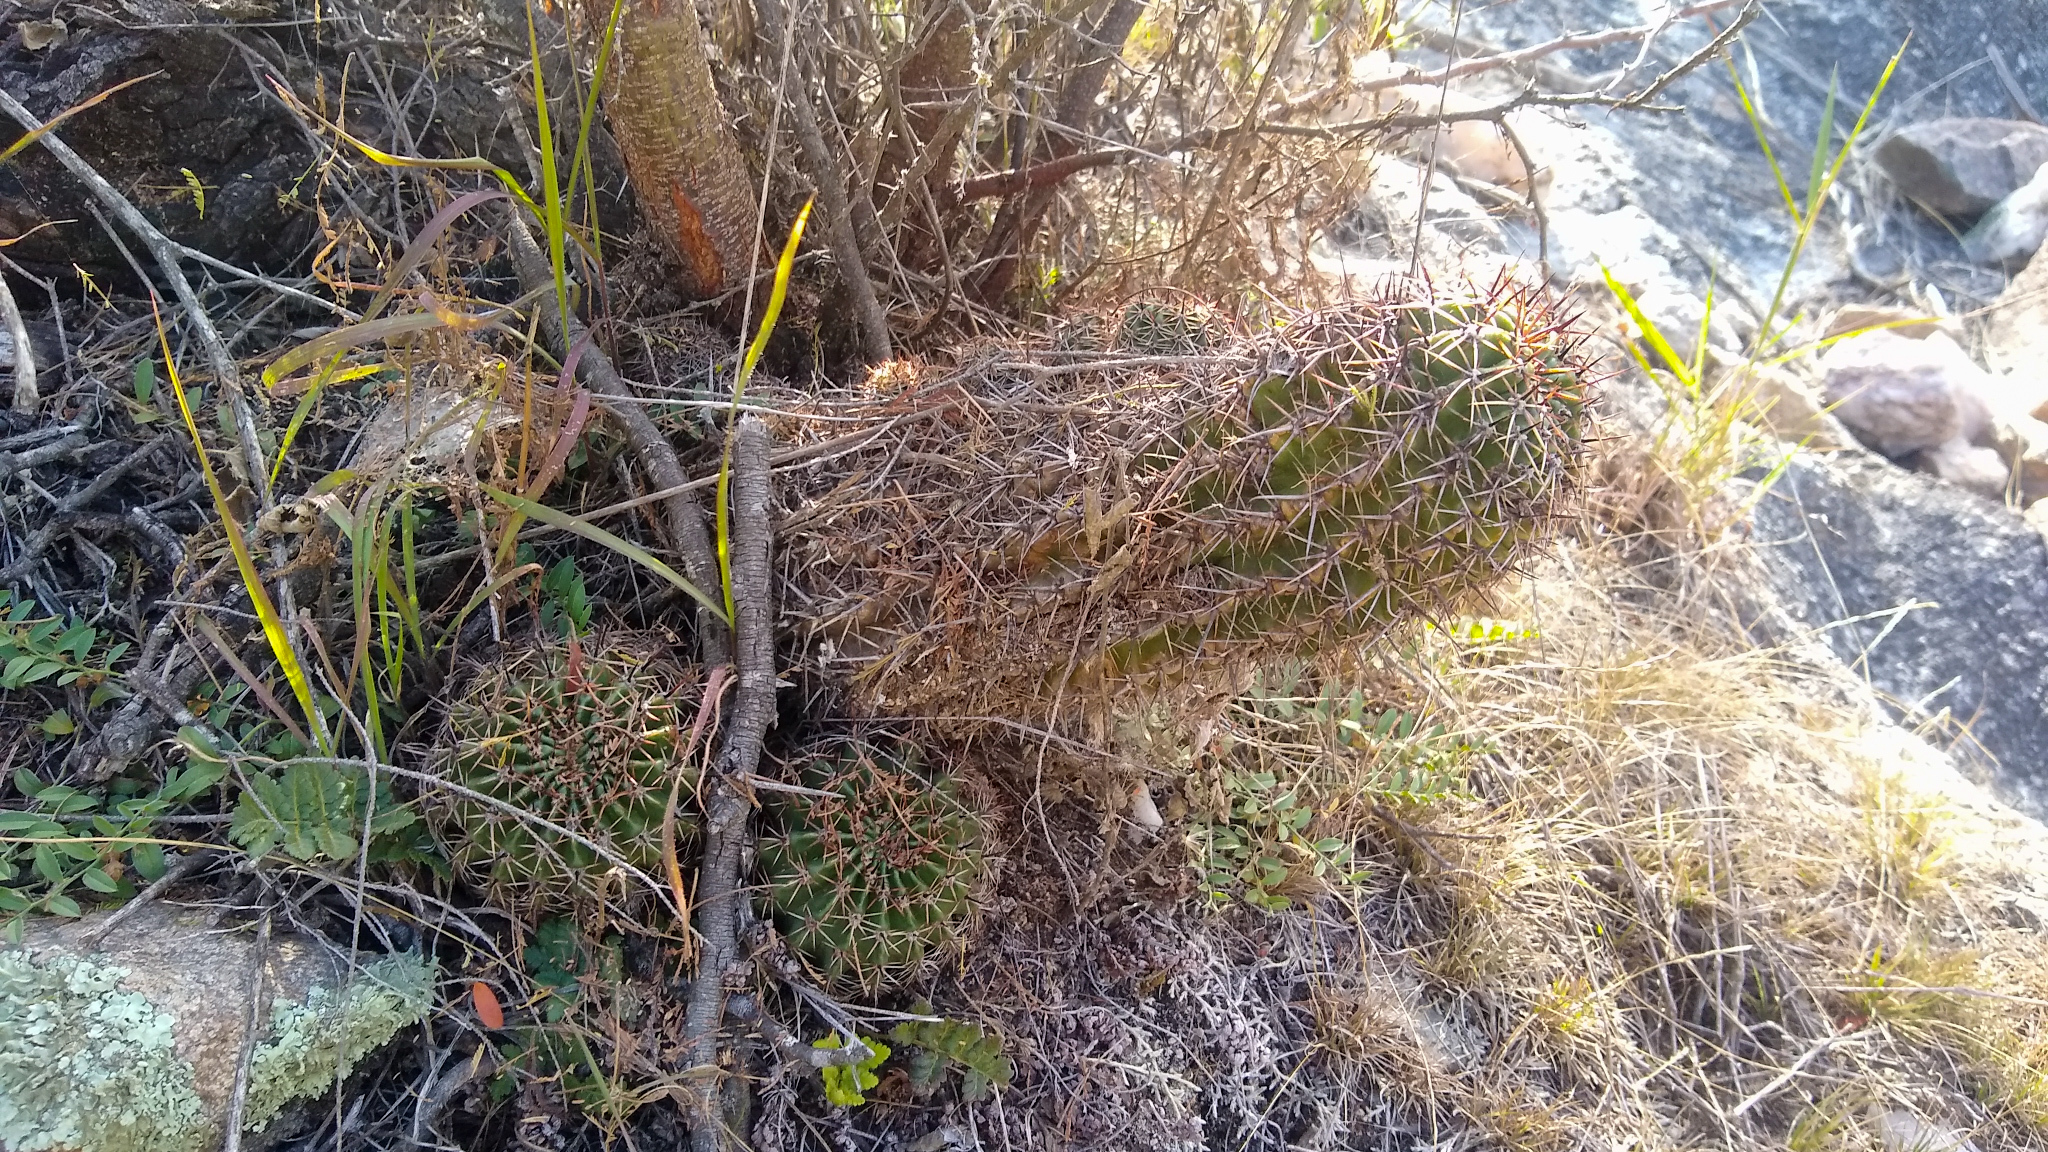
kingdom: Plantae
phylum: Tracheophyta
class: Magnoliopsida
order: Caryophyllales
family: Cactaceae
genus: Echinopsis
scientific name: Echinopsis aurea
